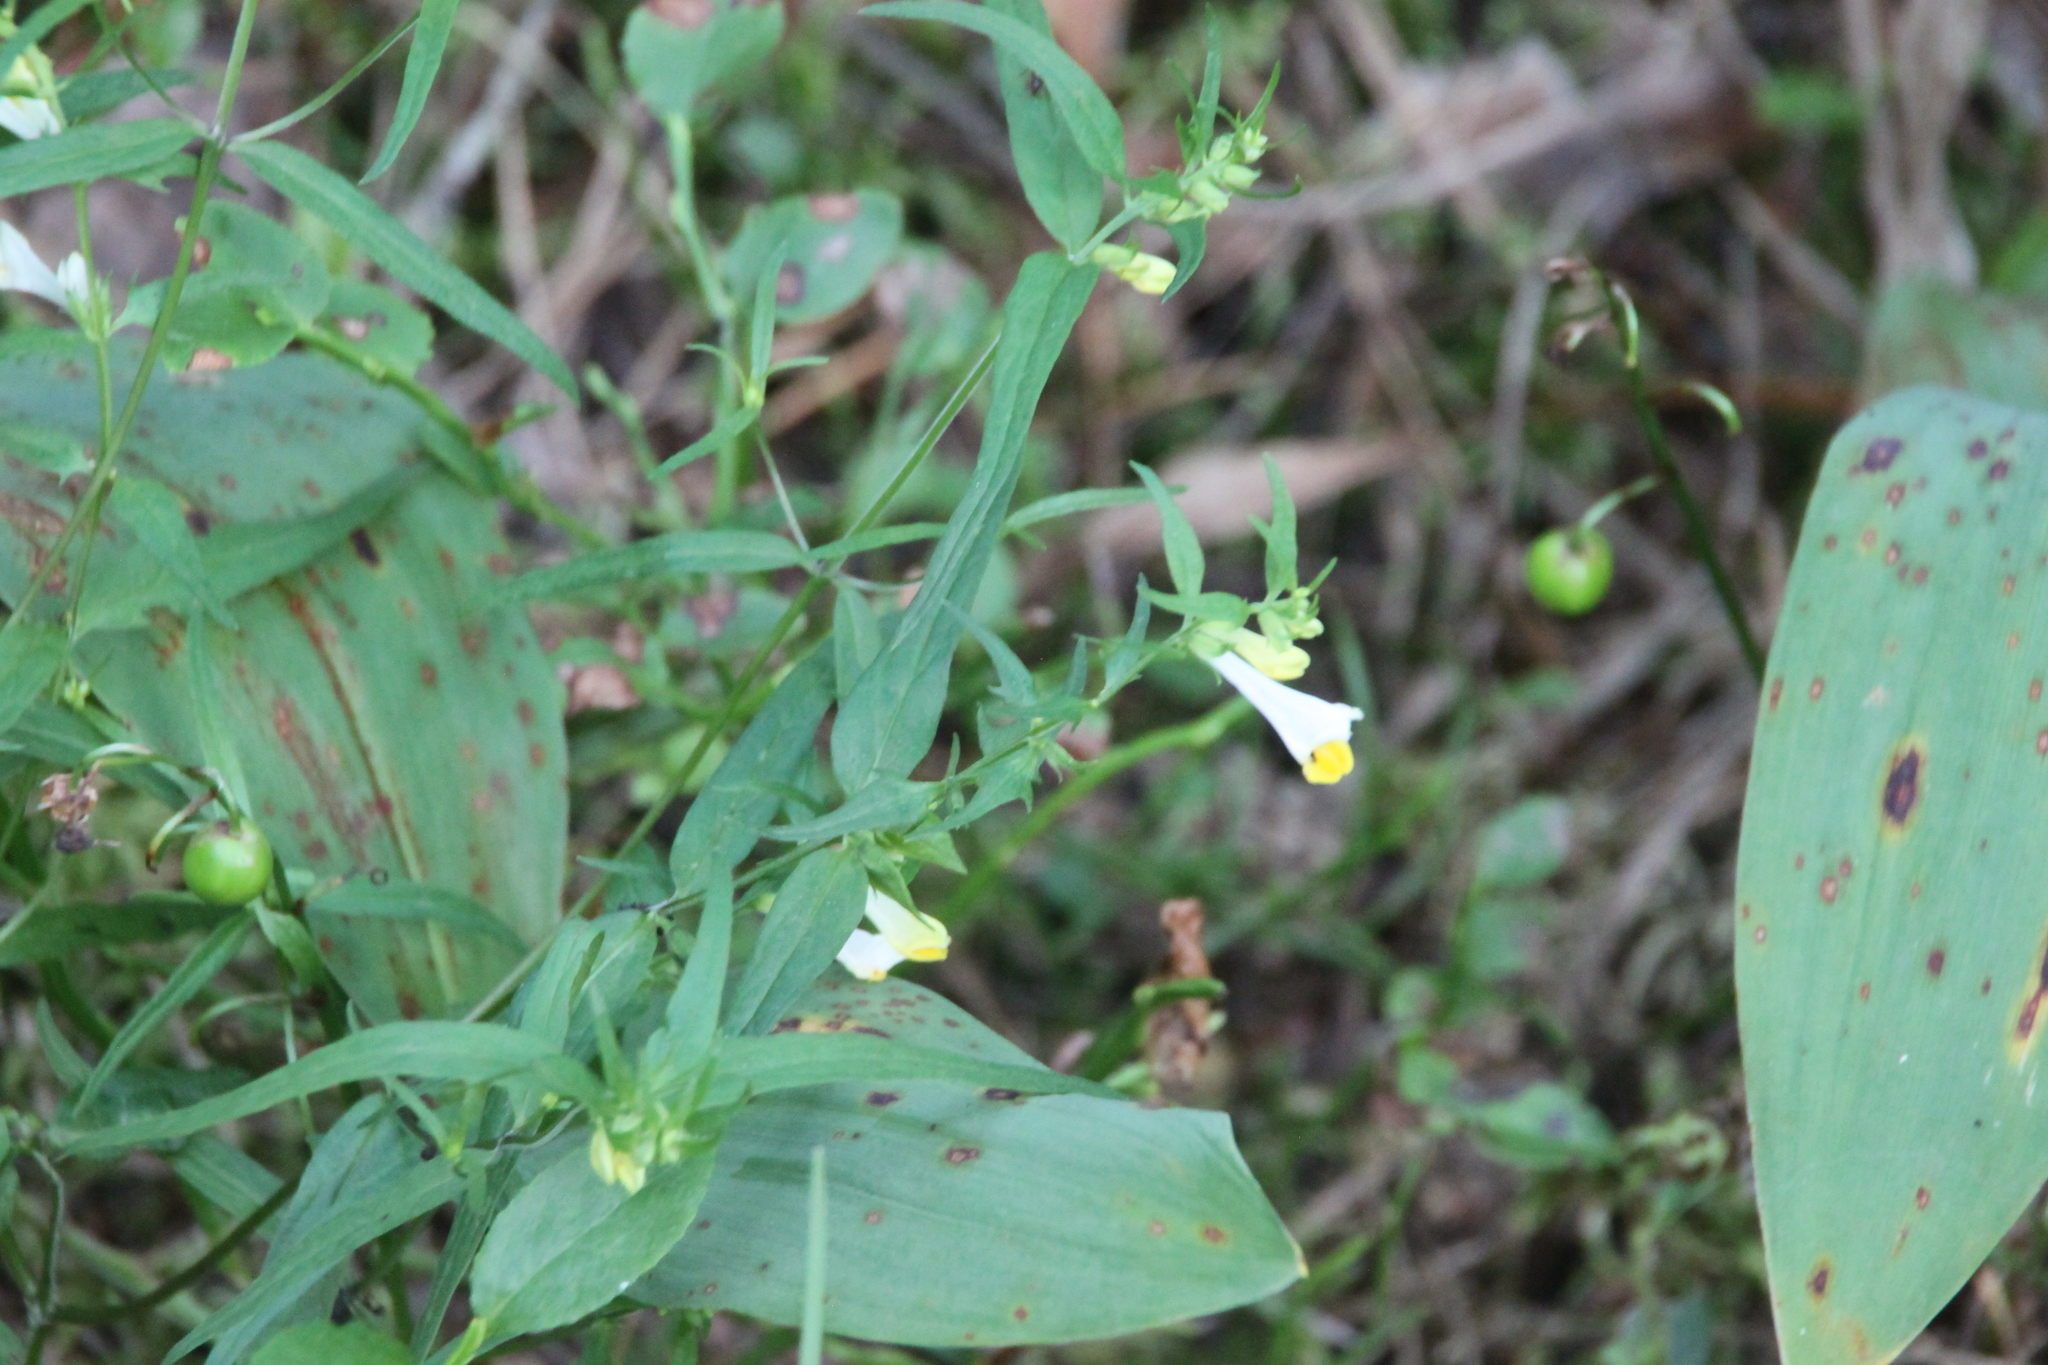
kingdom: Plantae
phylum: Tracheophyta
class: Magnoliopsida
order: Lamiales
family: Orobanchaceae
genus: Melampyrum
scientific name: Melampyrum pratense
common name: Common cow-wheat
